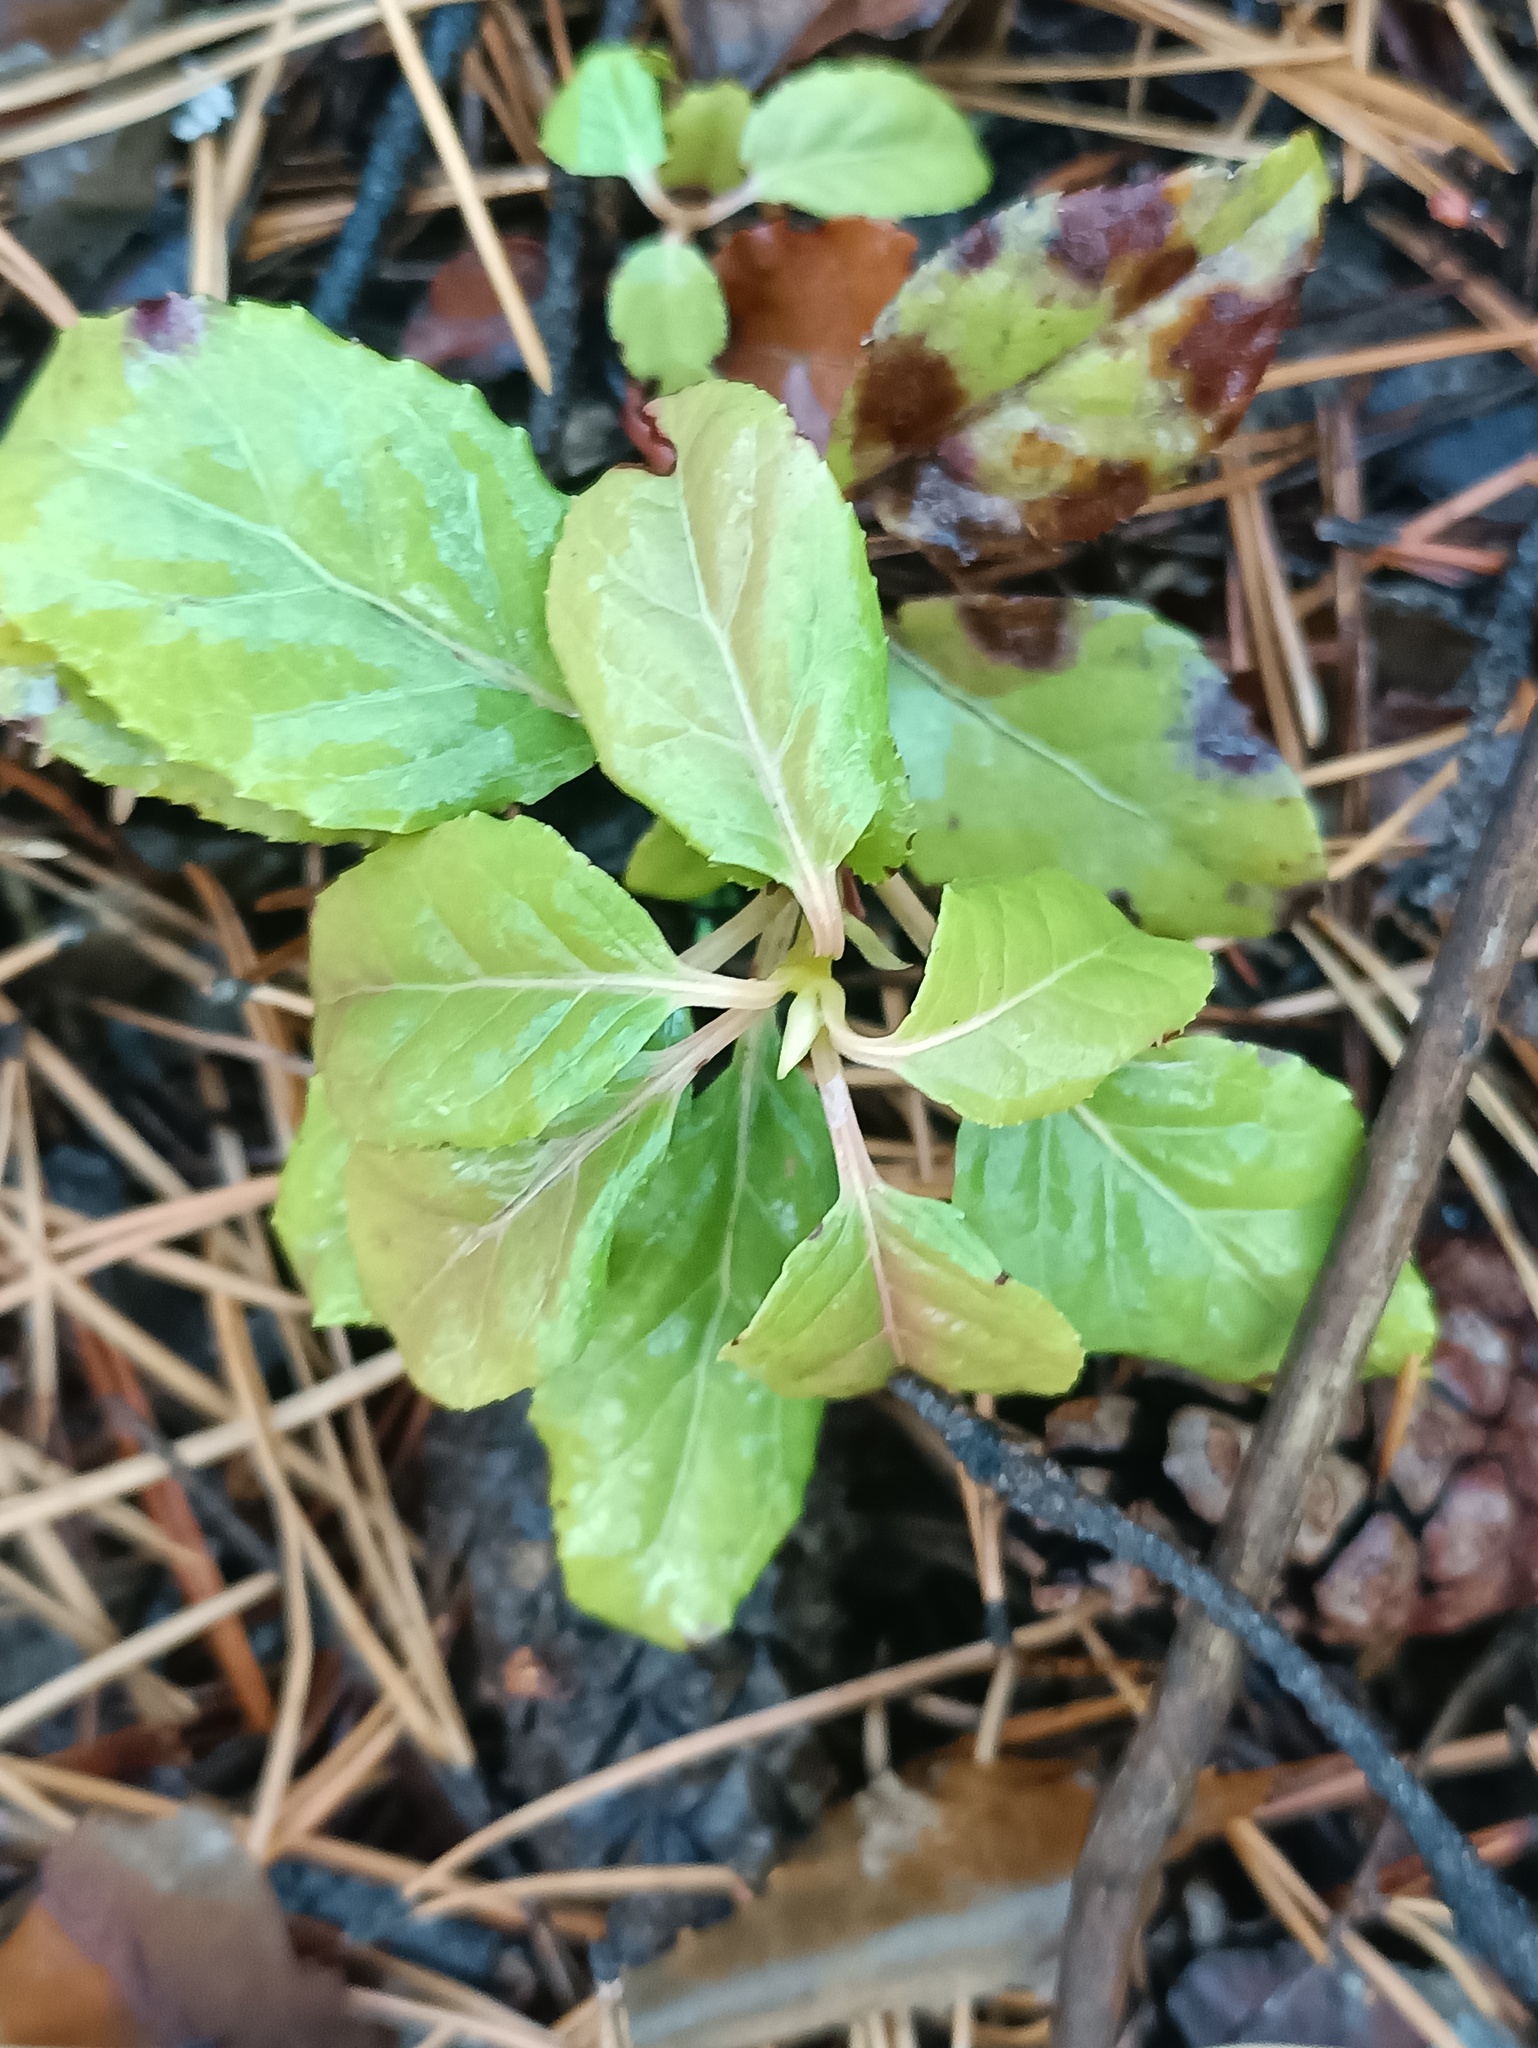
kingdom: Plantae
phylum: Tracheophyta
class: Magnoliopsida
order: Ericales
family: Ericaceae
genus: Orthilia
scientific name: Orthilia secunda
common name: One-sided orthilia
